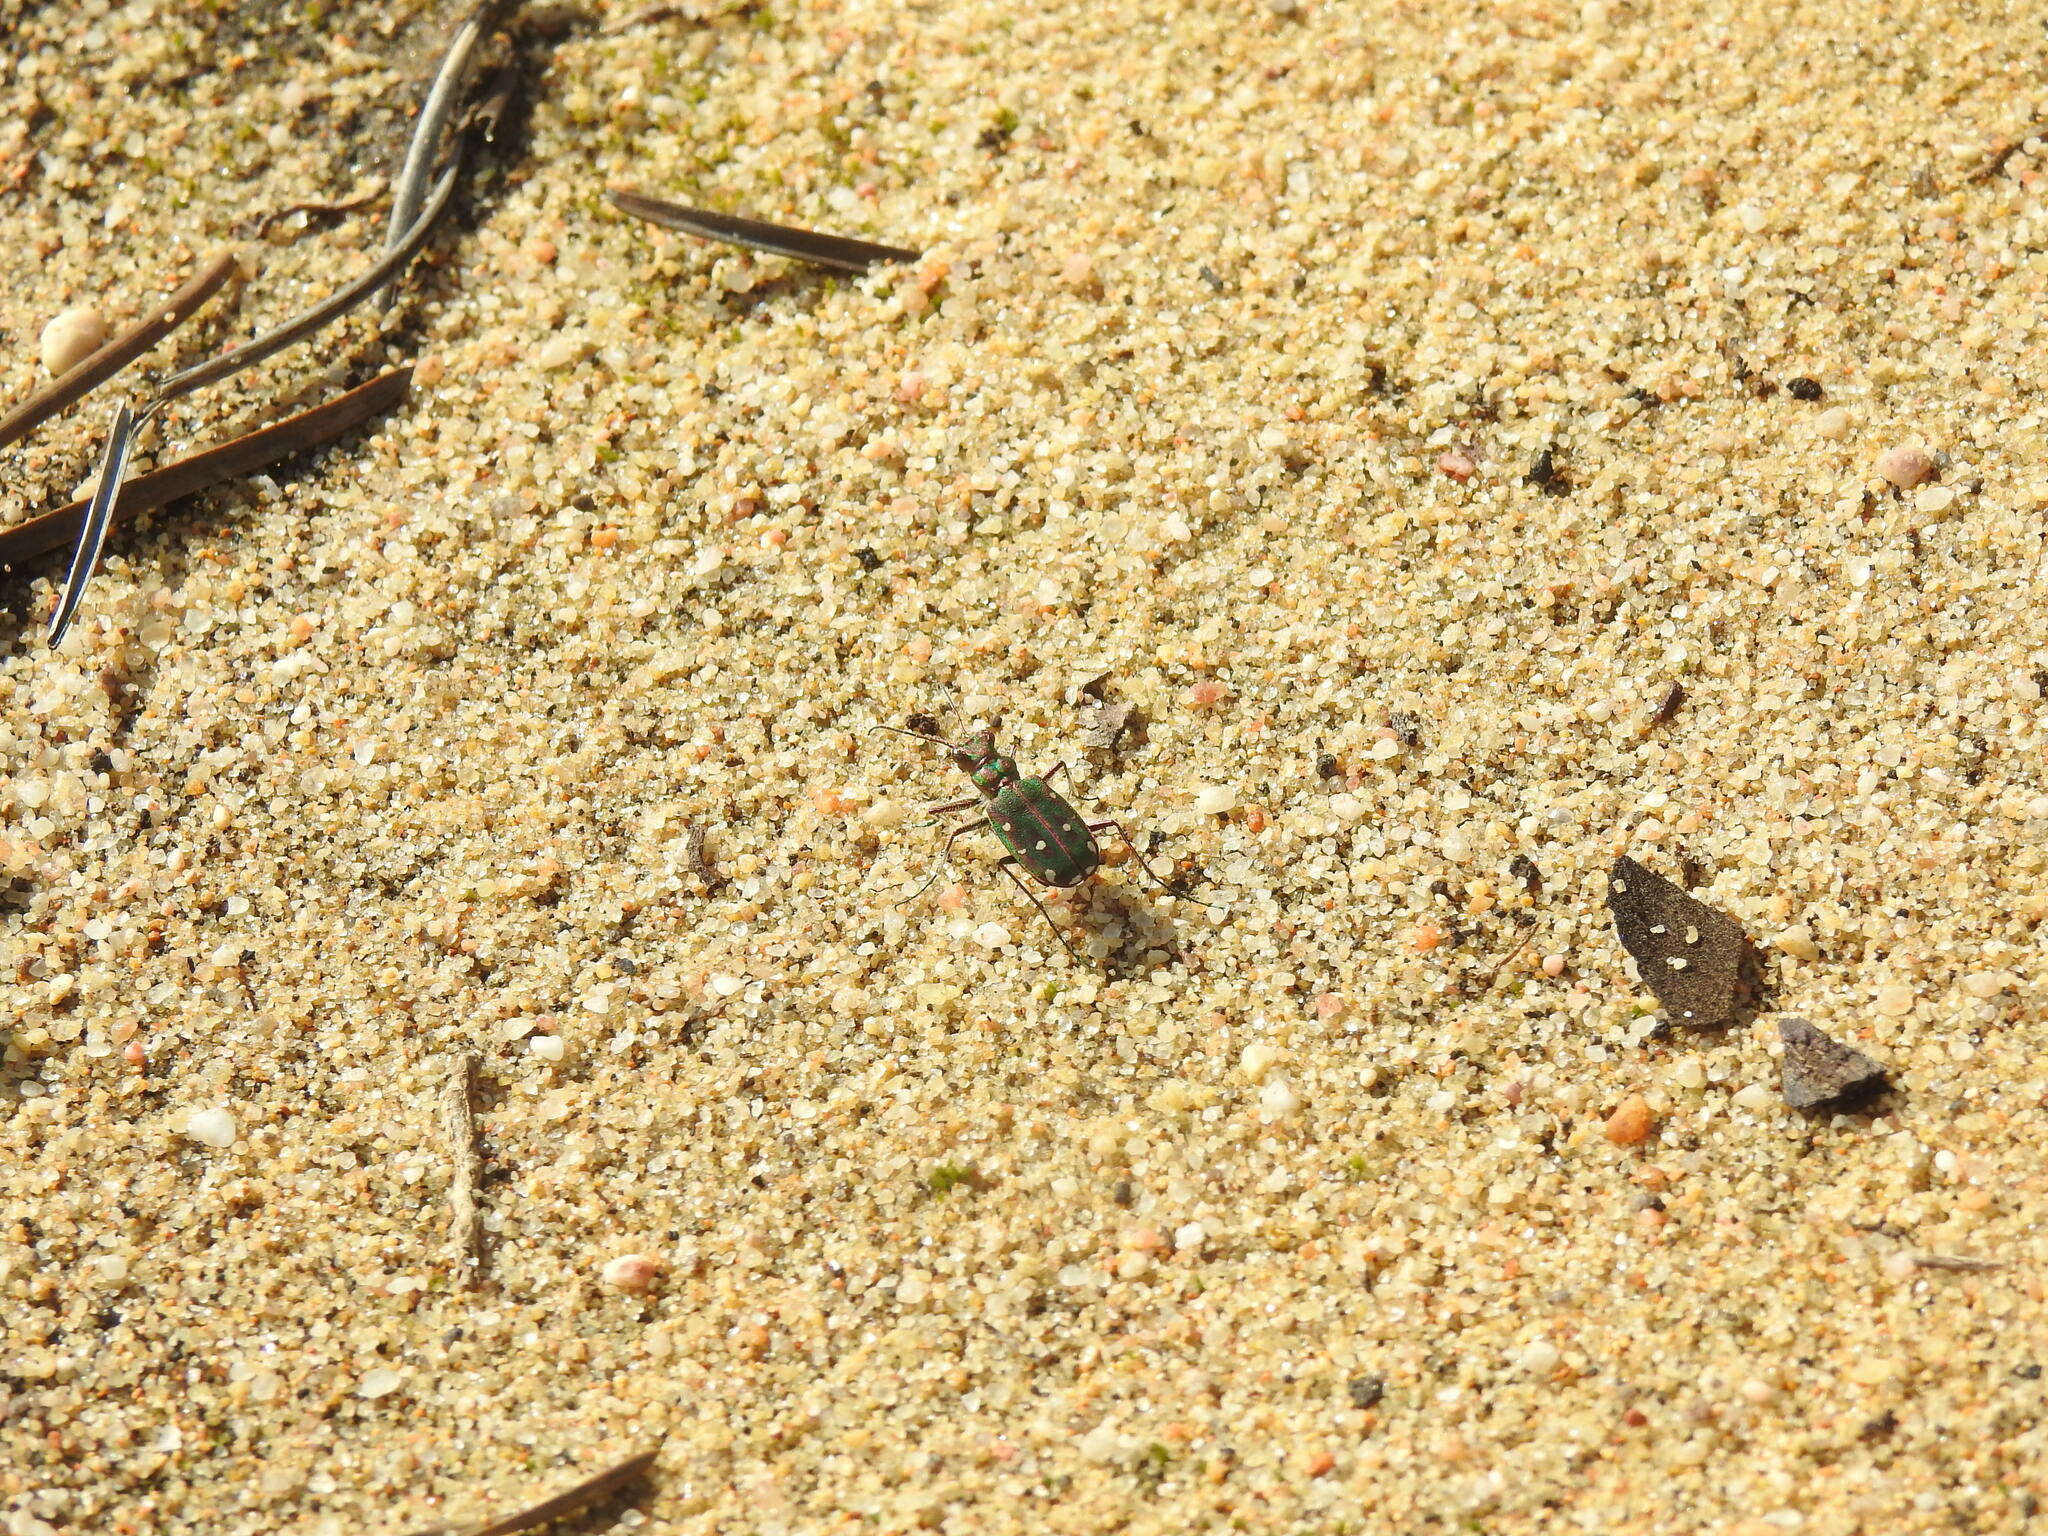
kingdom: Animalia
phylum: Arthropoda
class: Insecta
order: Coleoptera
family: Carabidae
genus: Cicindela
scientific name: Cicindela maroccana
